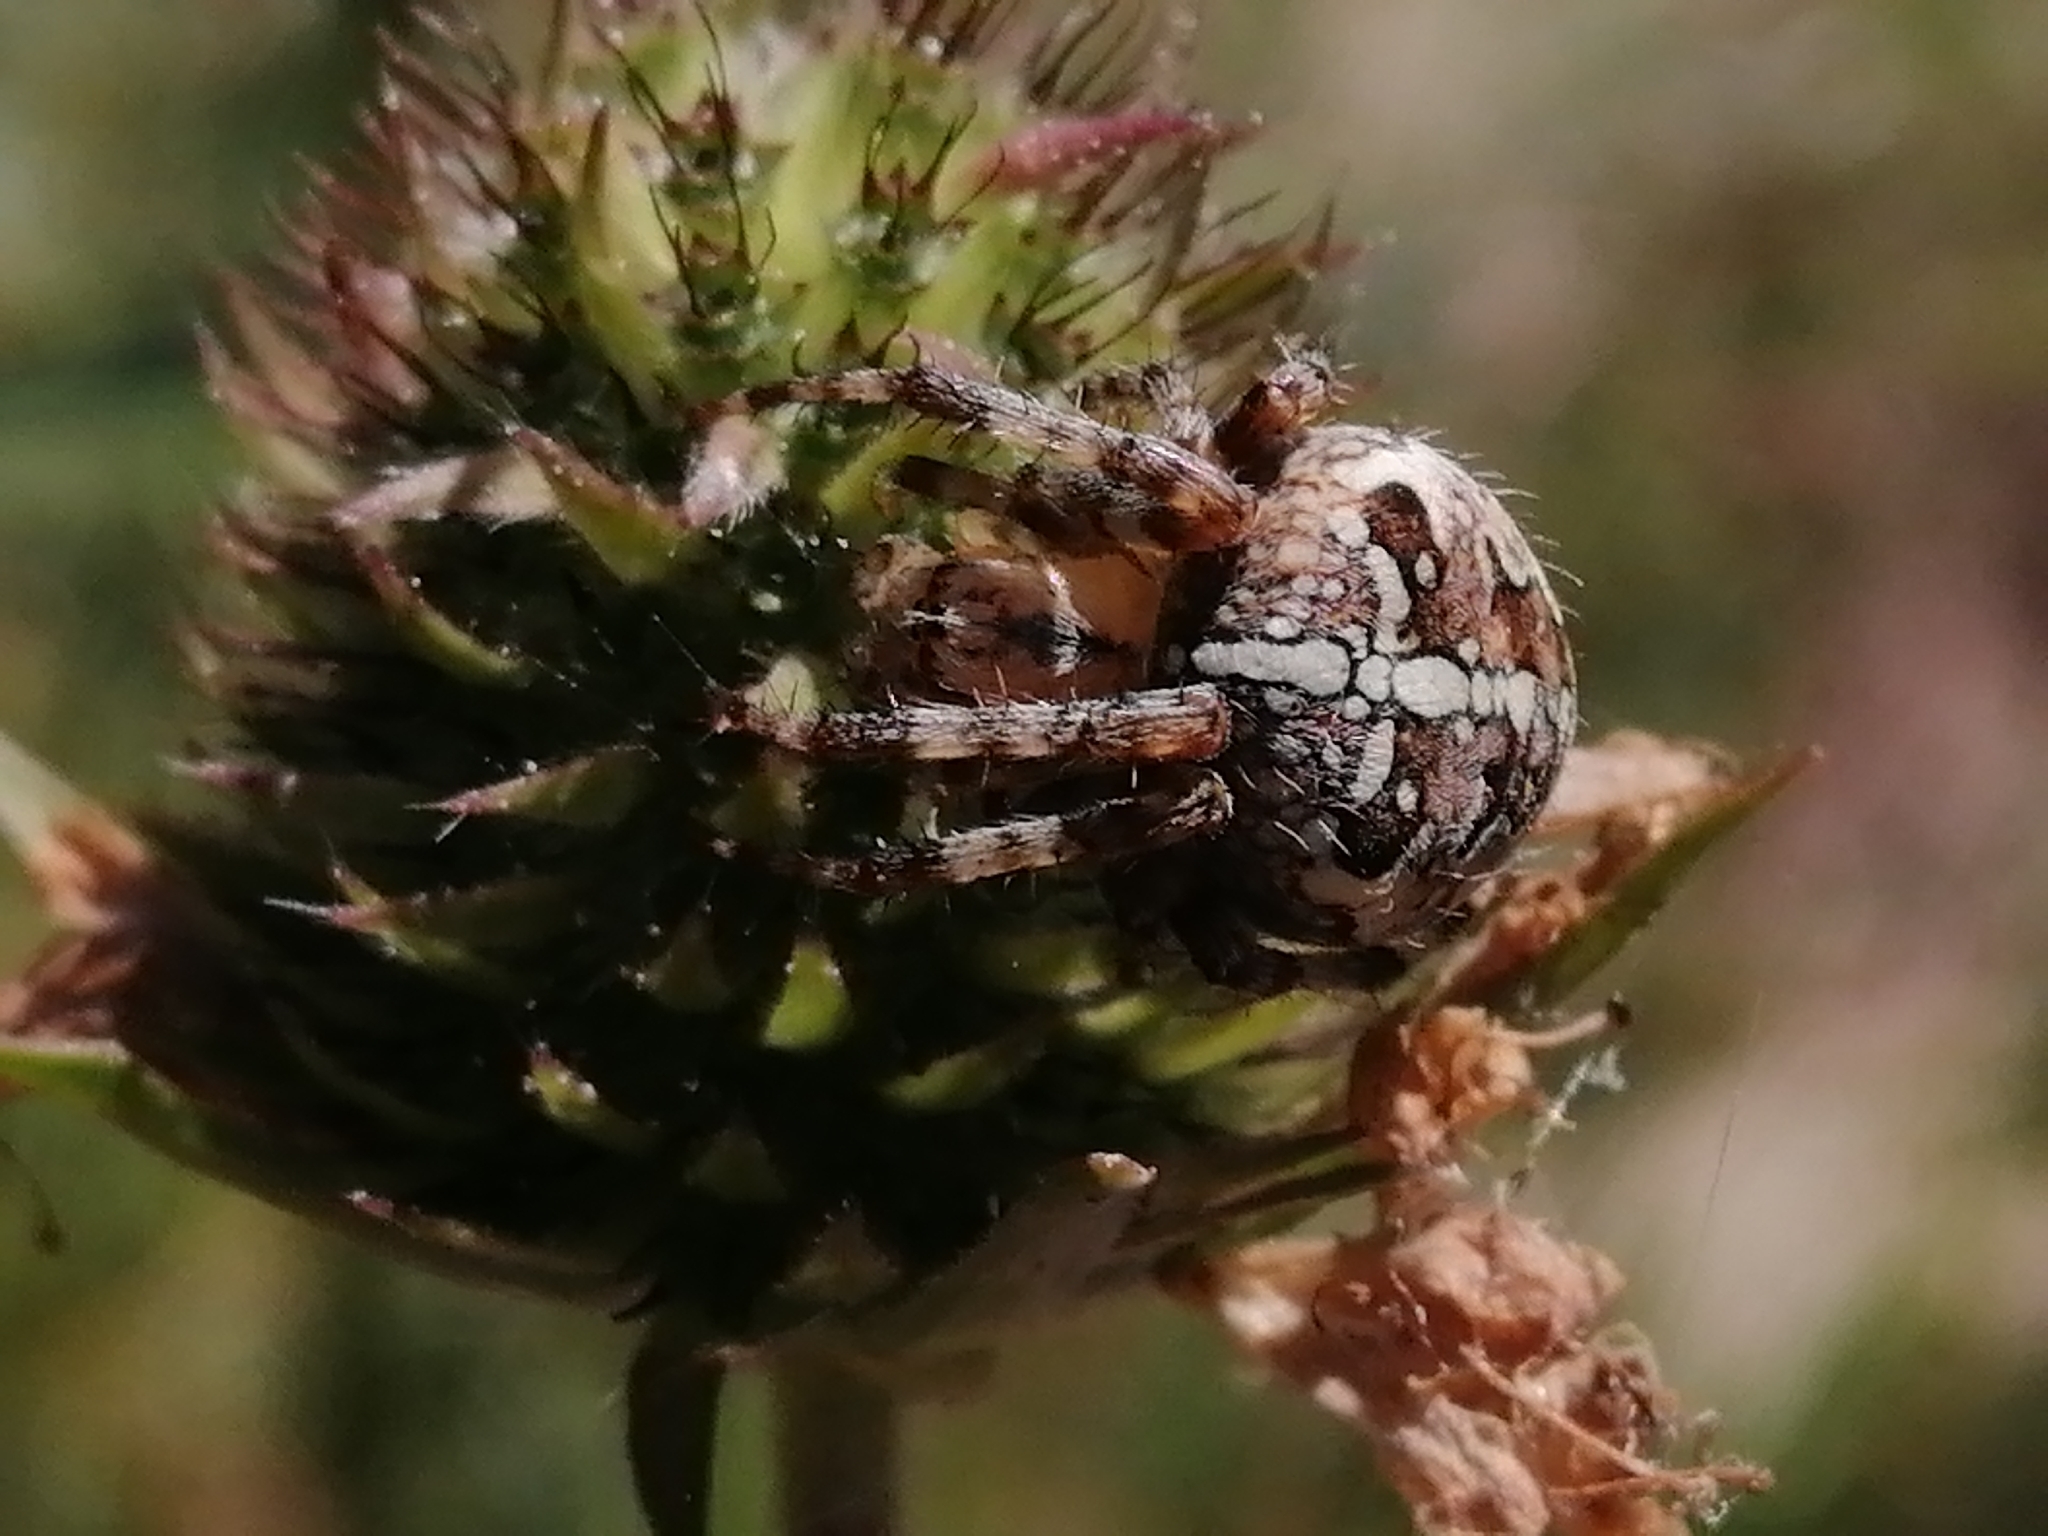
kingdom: Animalia
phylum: Arthropoda
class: Arachnida
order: Araneae
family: Araneidae
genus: Araneus
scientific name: Araneus diadematus
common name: Cross orbweaver
